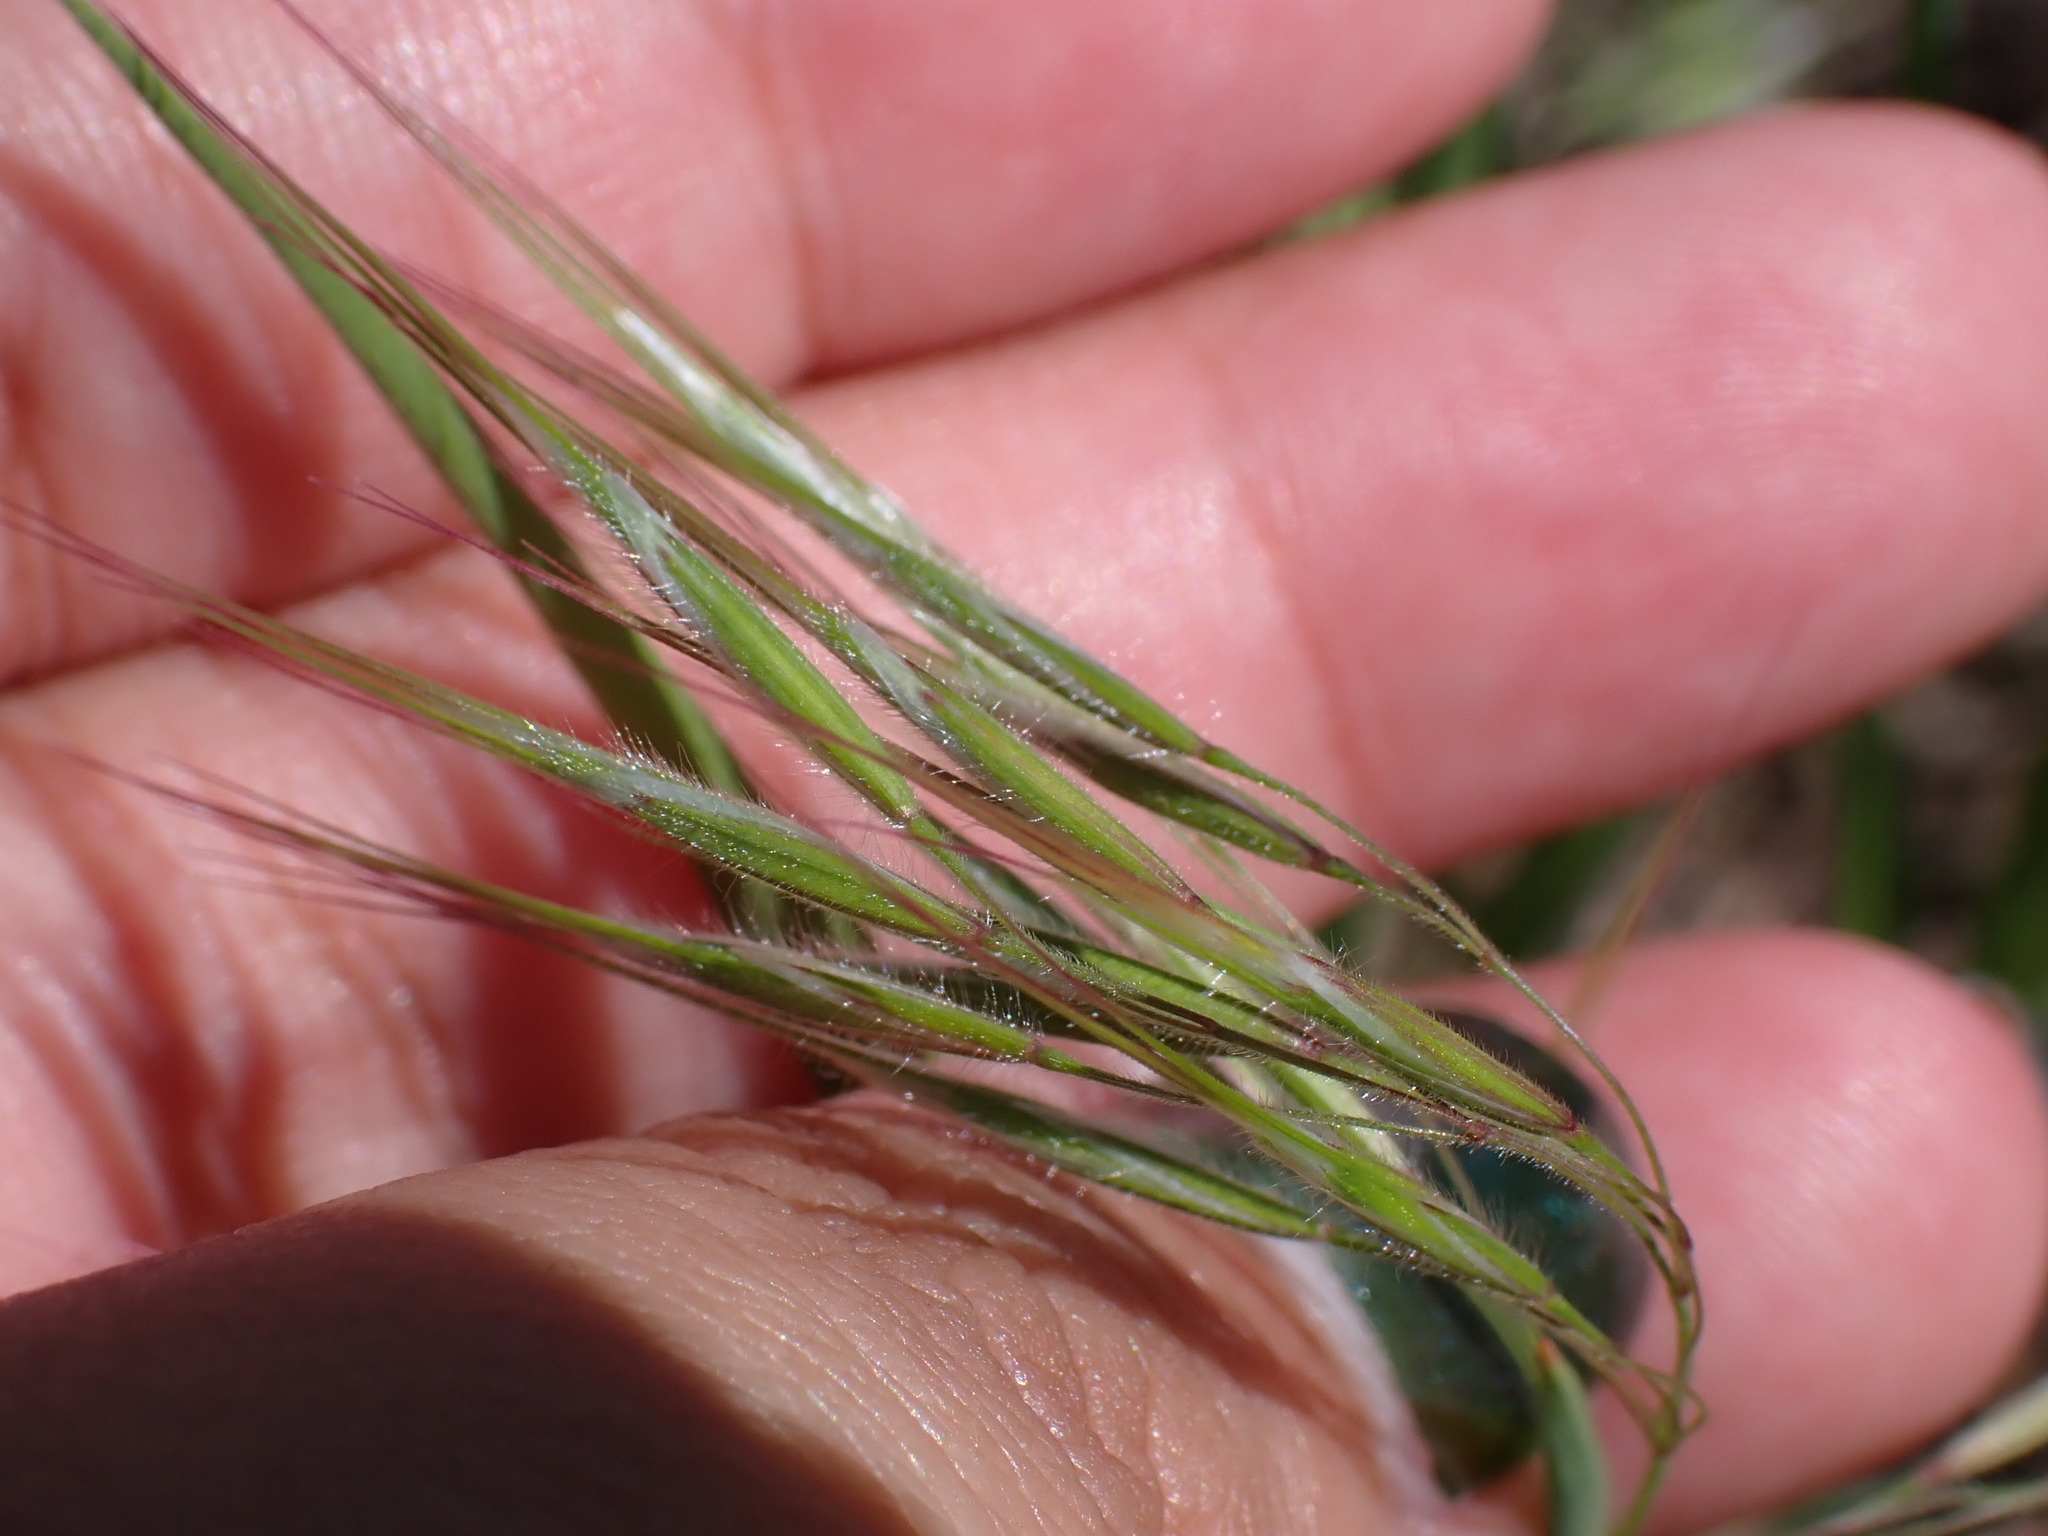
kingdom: Plantae
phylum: Tracheophyta
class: Liliopsida
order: Poales
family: Poaceae
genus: Bromus
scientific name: Bromus tectorum
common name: Cheatgrass
